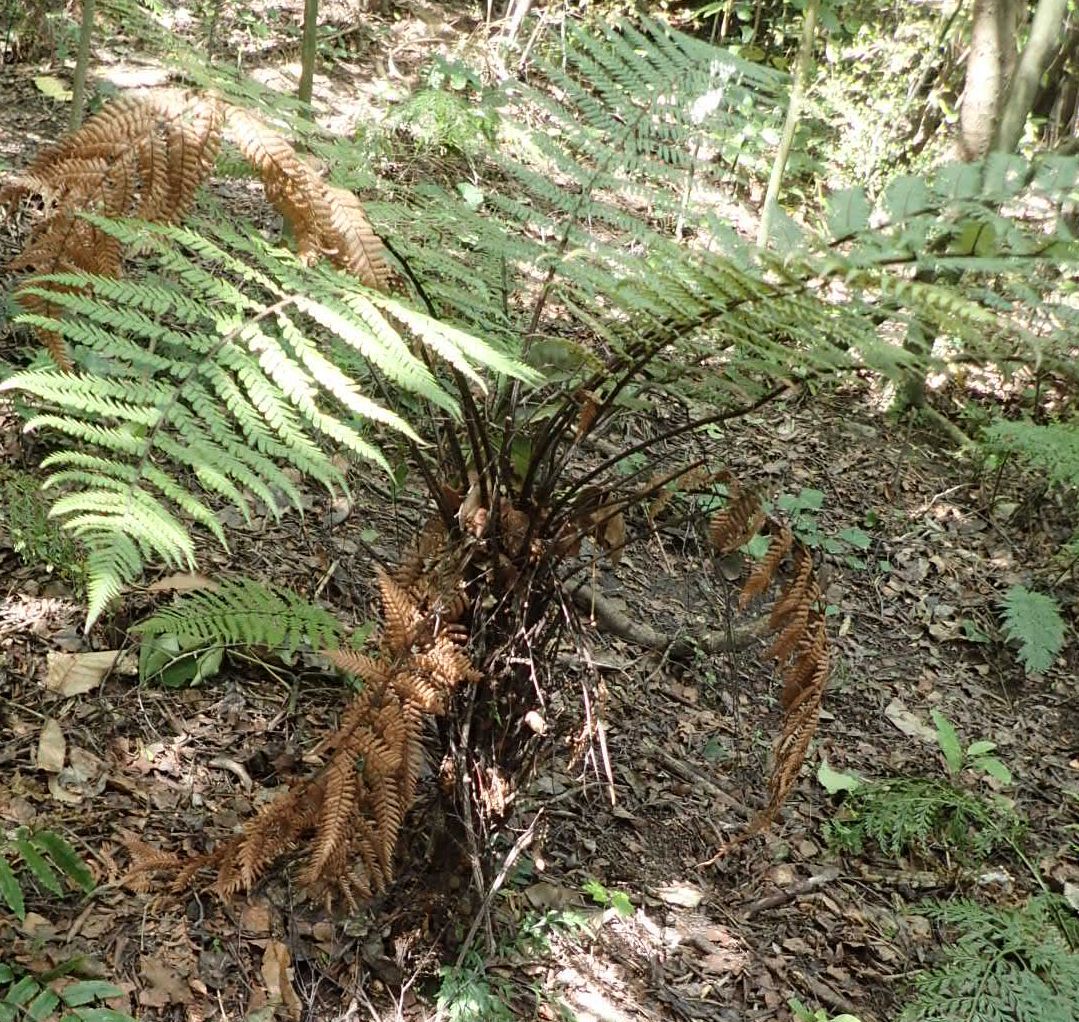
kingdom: Plantae
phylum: Tracheophyta
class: Polypodiopsida
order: Cyatheales
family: Dicksoniaceae
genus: Dicksonia
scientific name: Dicksonia squarrosa
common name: Hard treefern
